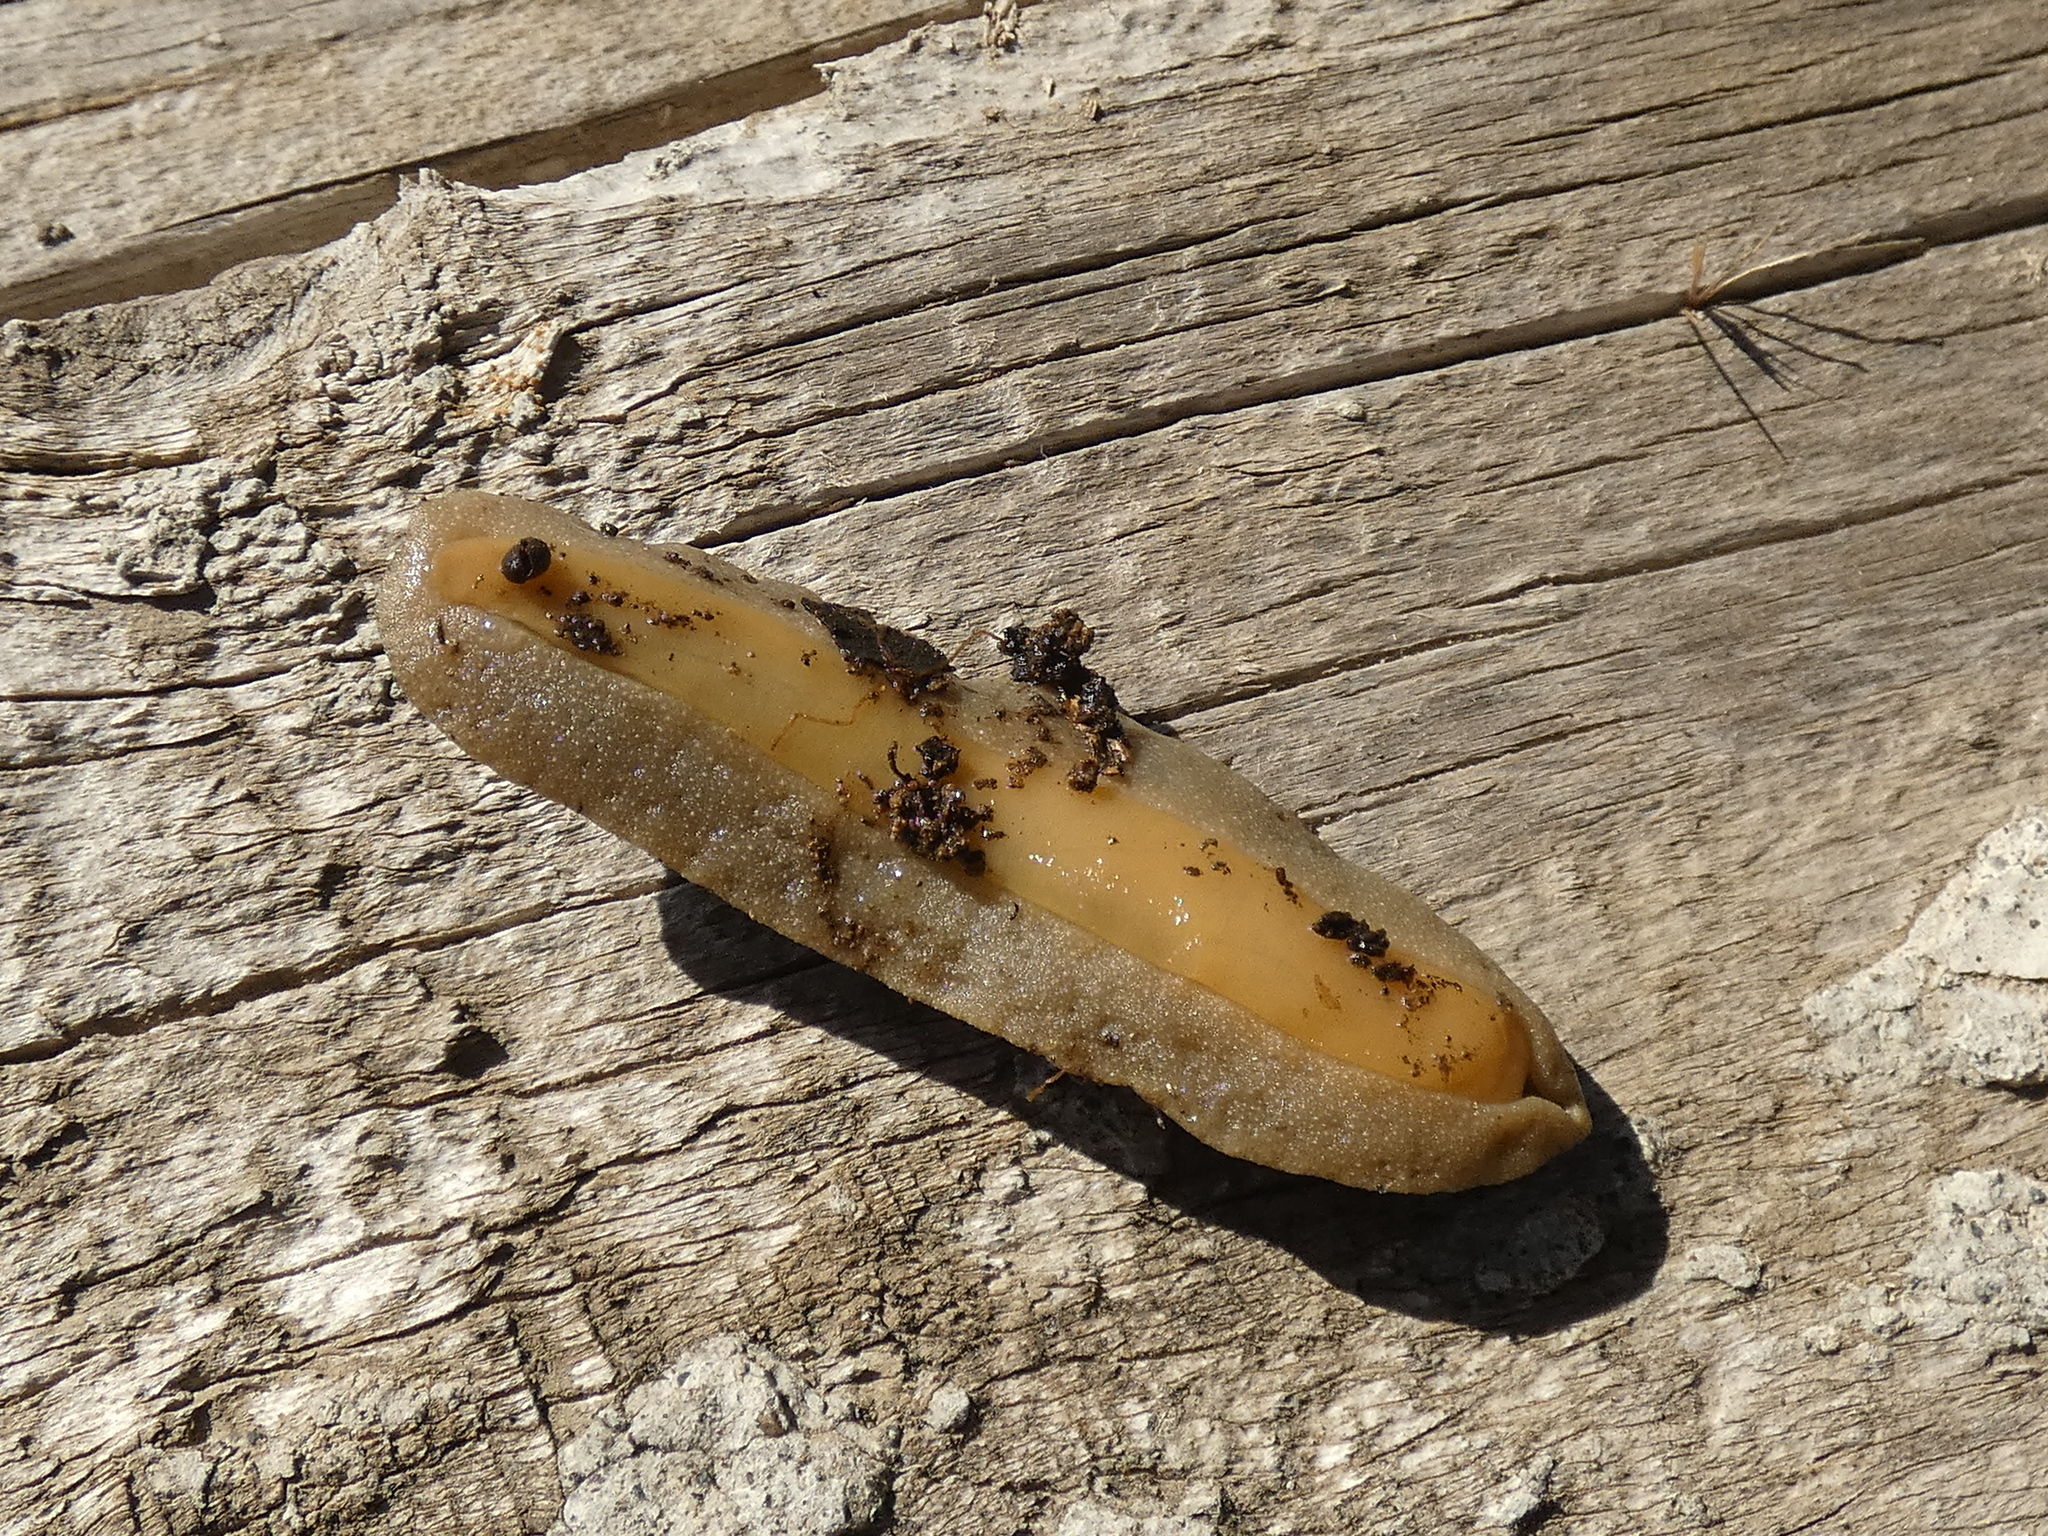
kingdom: Animalia
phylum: Mollusca
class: Gastropoda
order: Systellommatophora
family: Veronicellidae
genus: Phyllocaulis
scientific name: Phyllocaulis gayi
